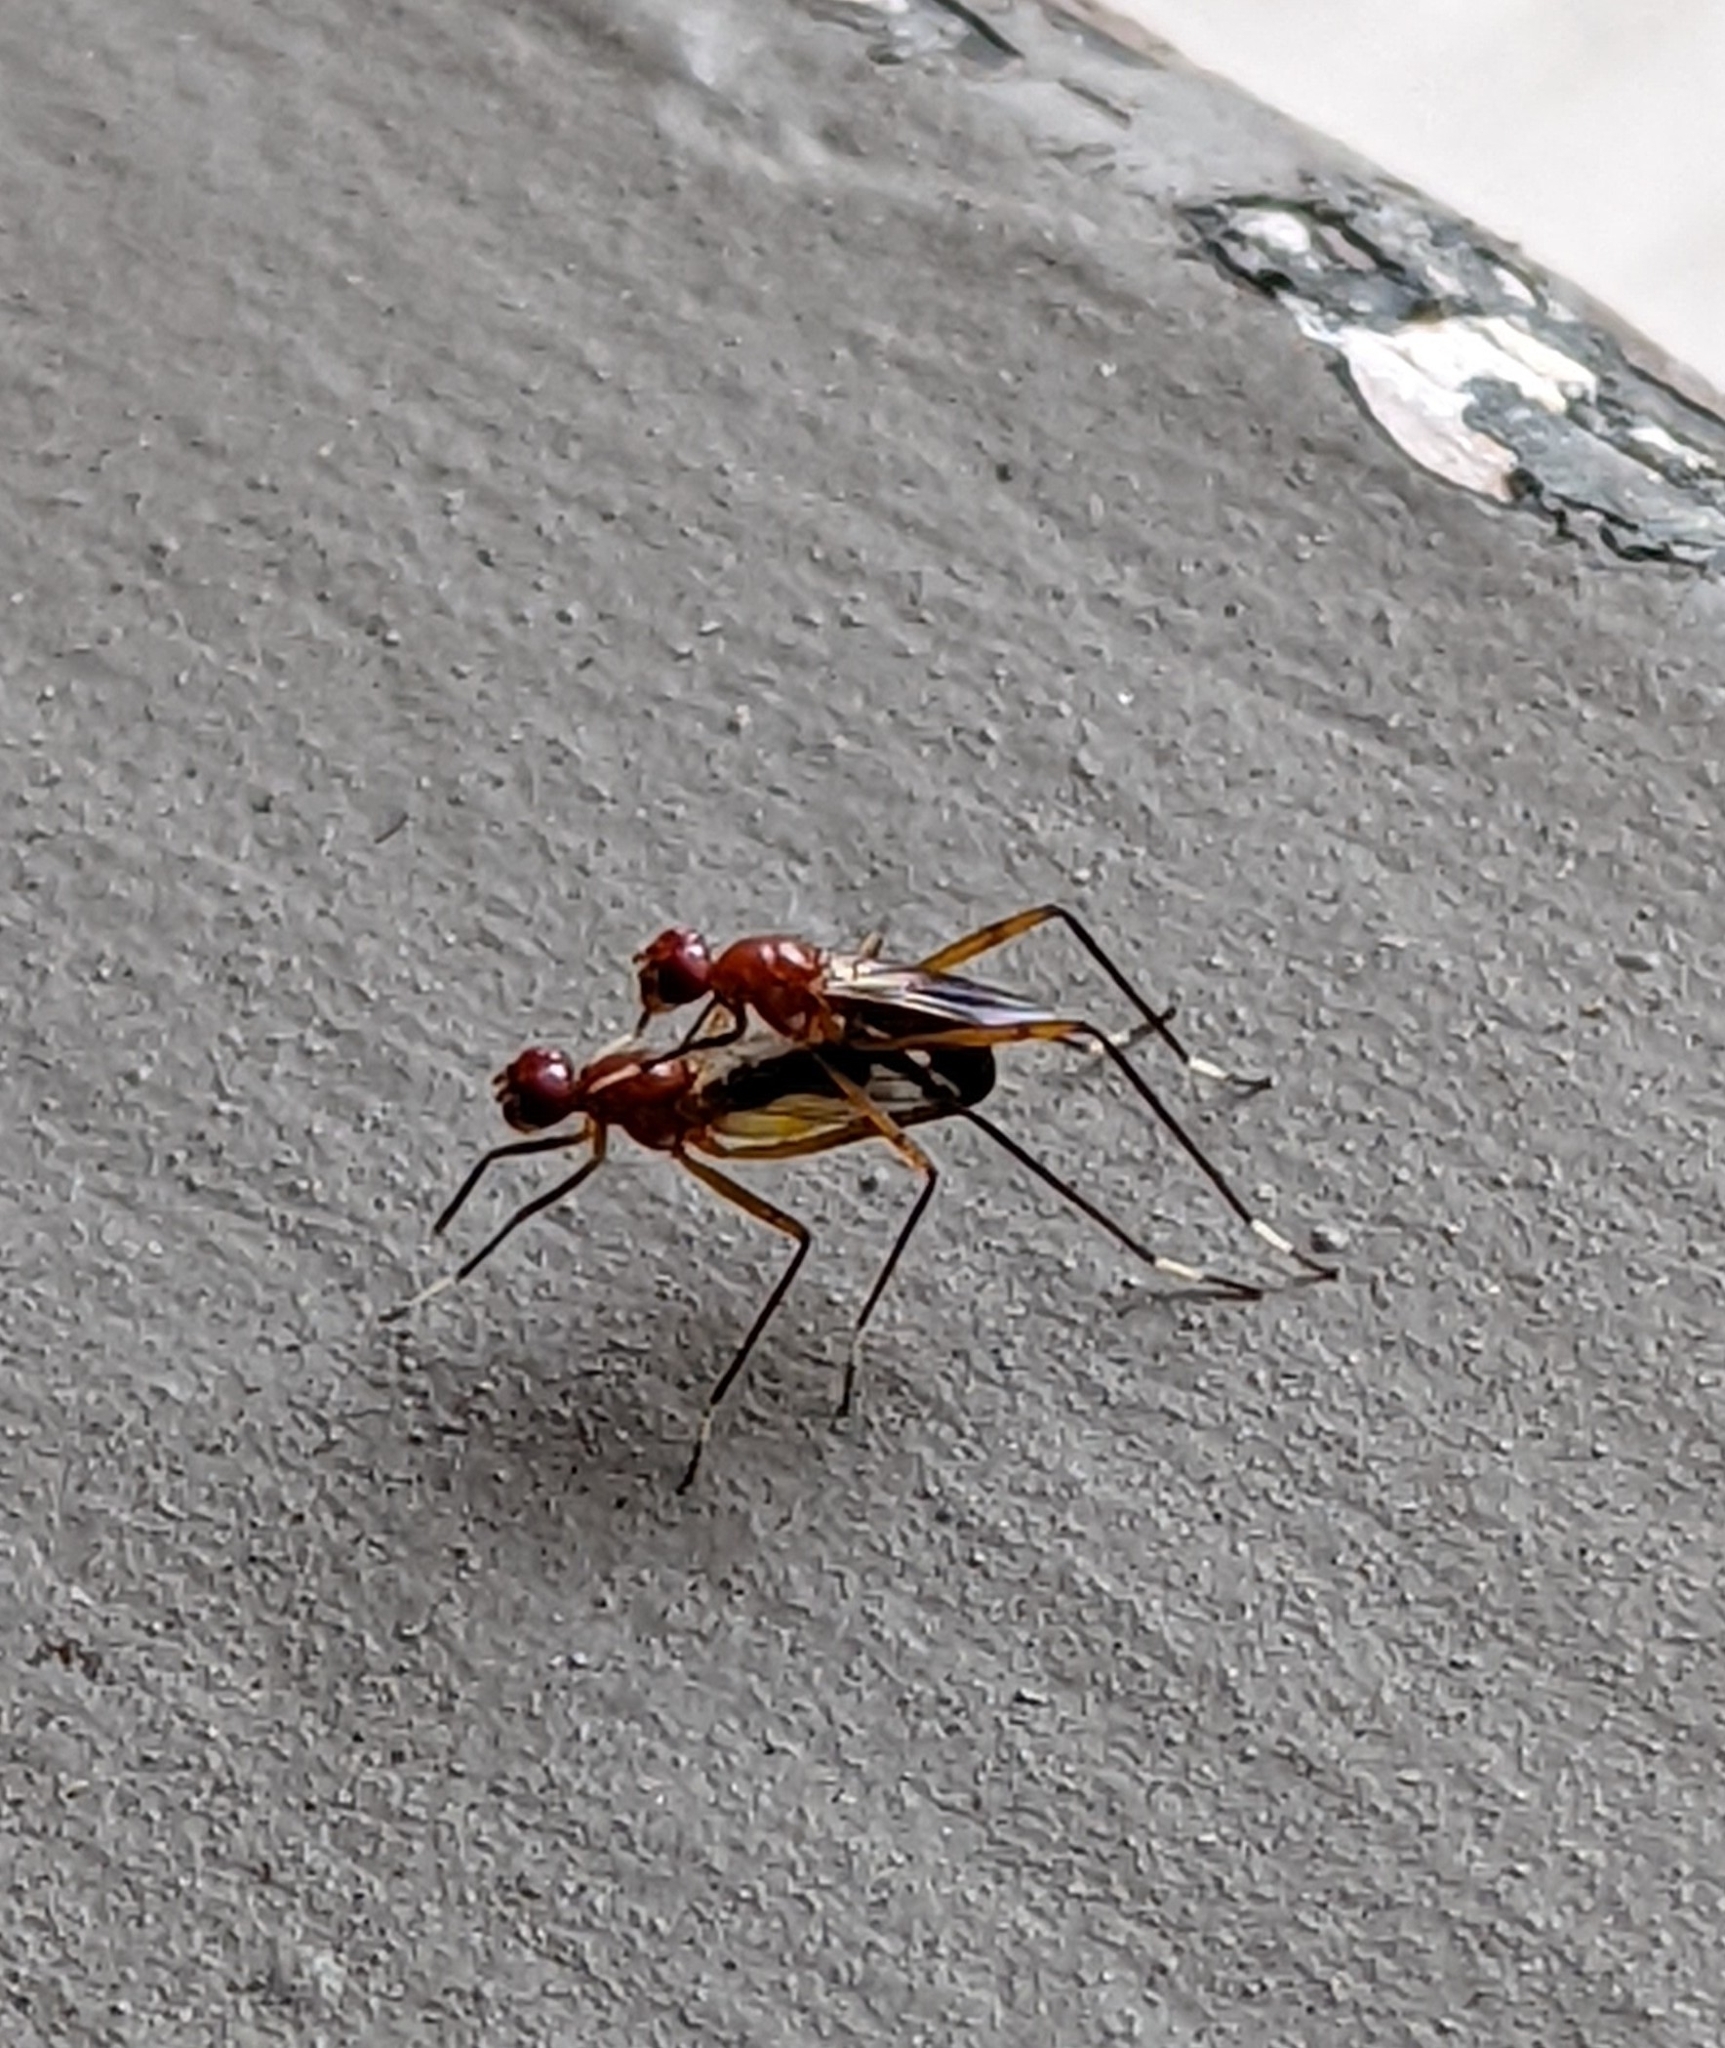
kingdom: Animalia
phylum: Arthropoda
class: Insecta
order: Diptera
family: Micropezidae
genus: Grallipeza
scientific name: Grallipeza nebulosa
